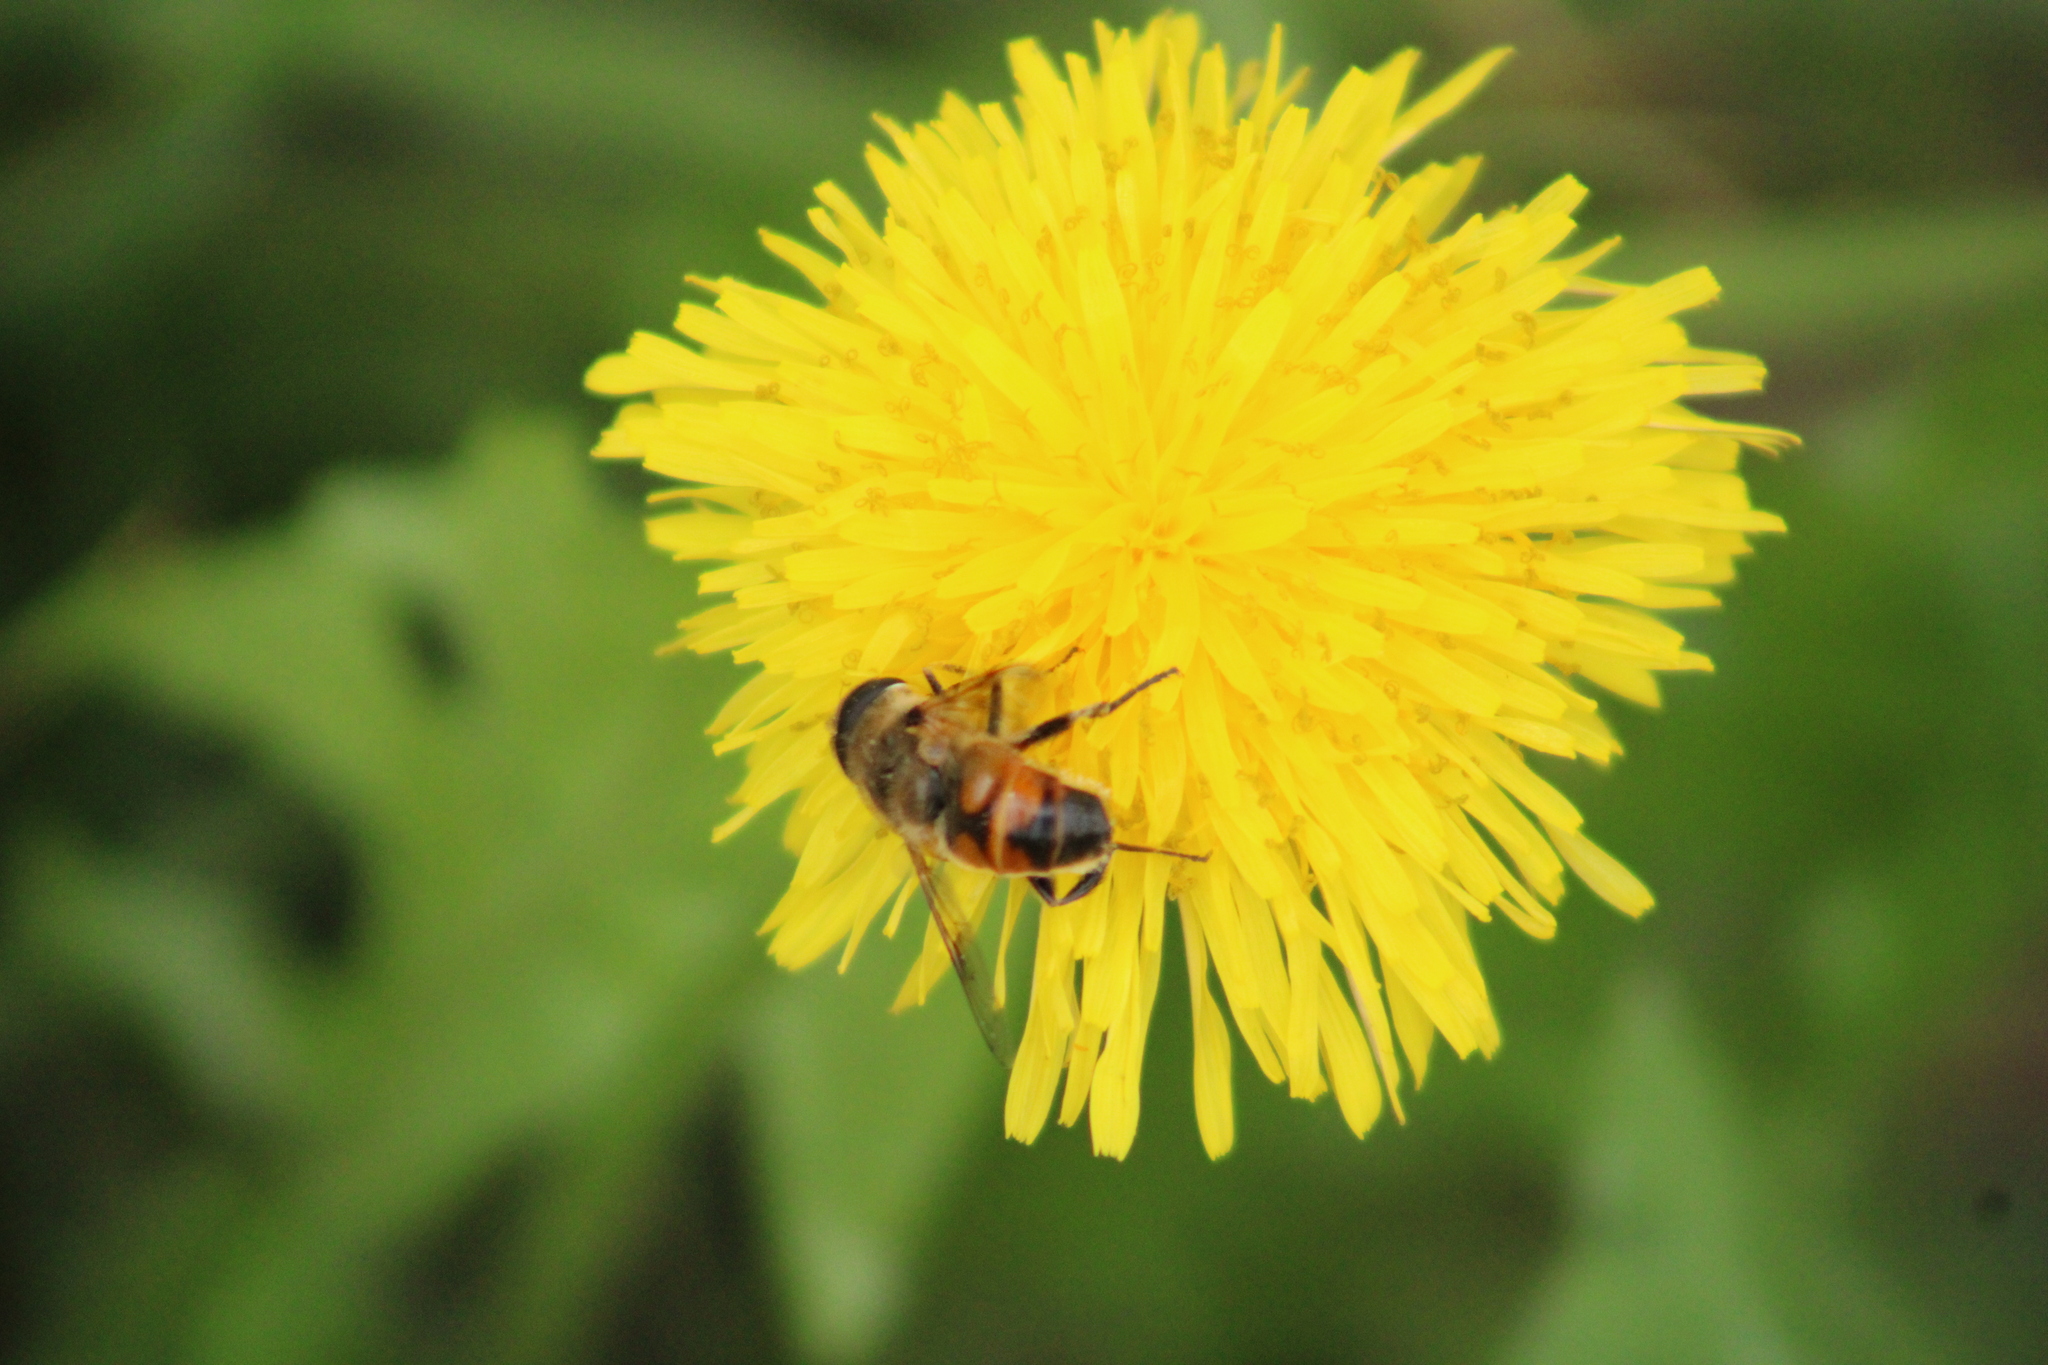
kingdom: Animalia
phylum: Arthropoda
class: Insecta
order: Diptera
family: Syrphidae
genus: Eristalis
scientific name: Eristalis tenax
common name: Drone fly
